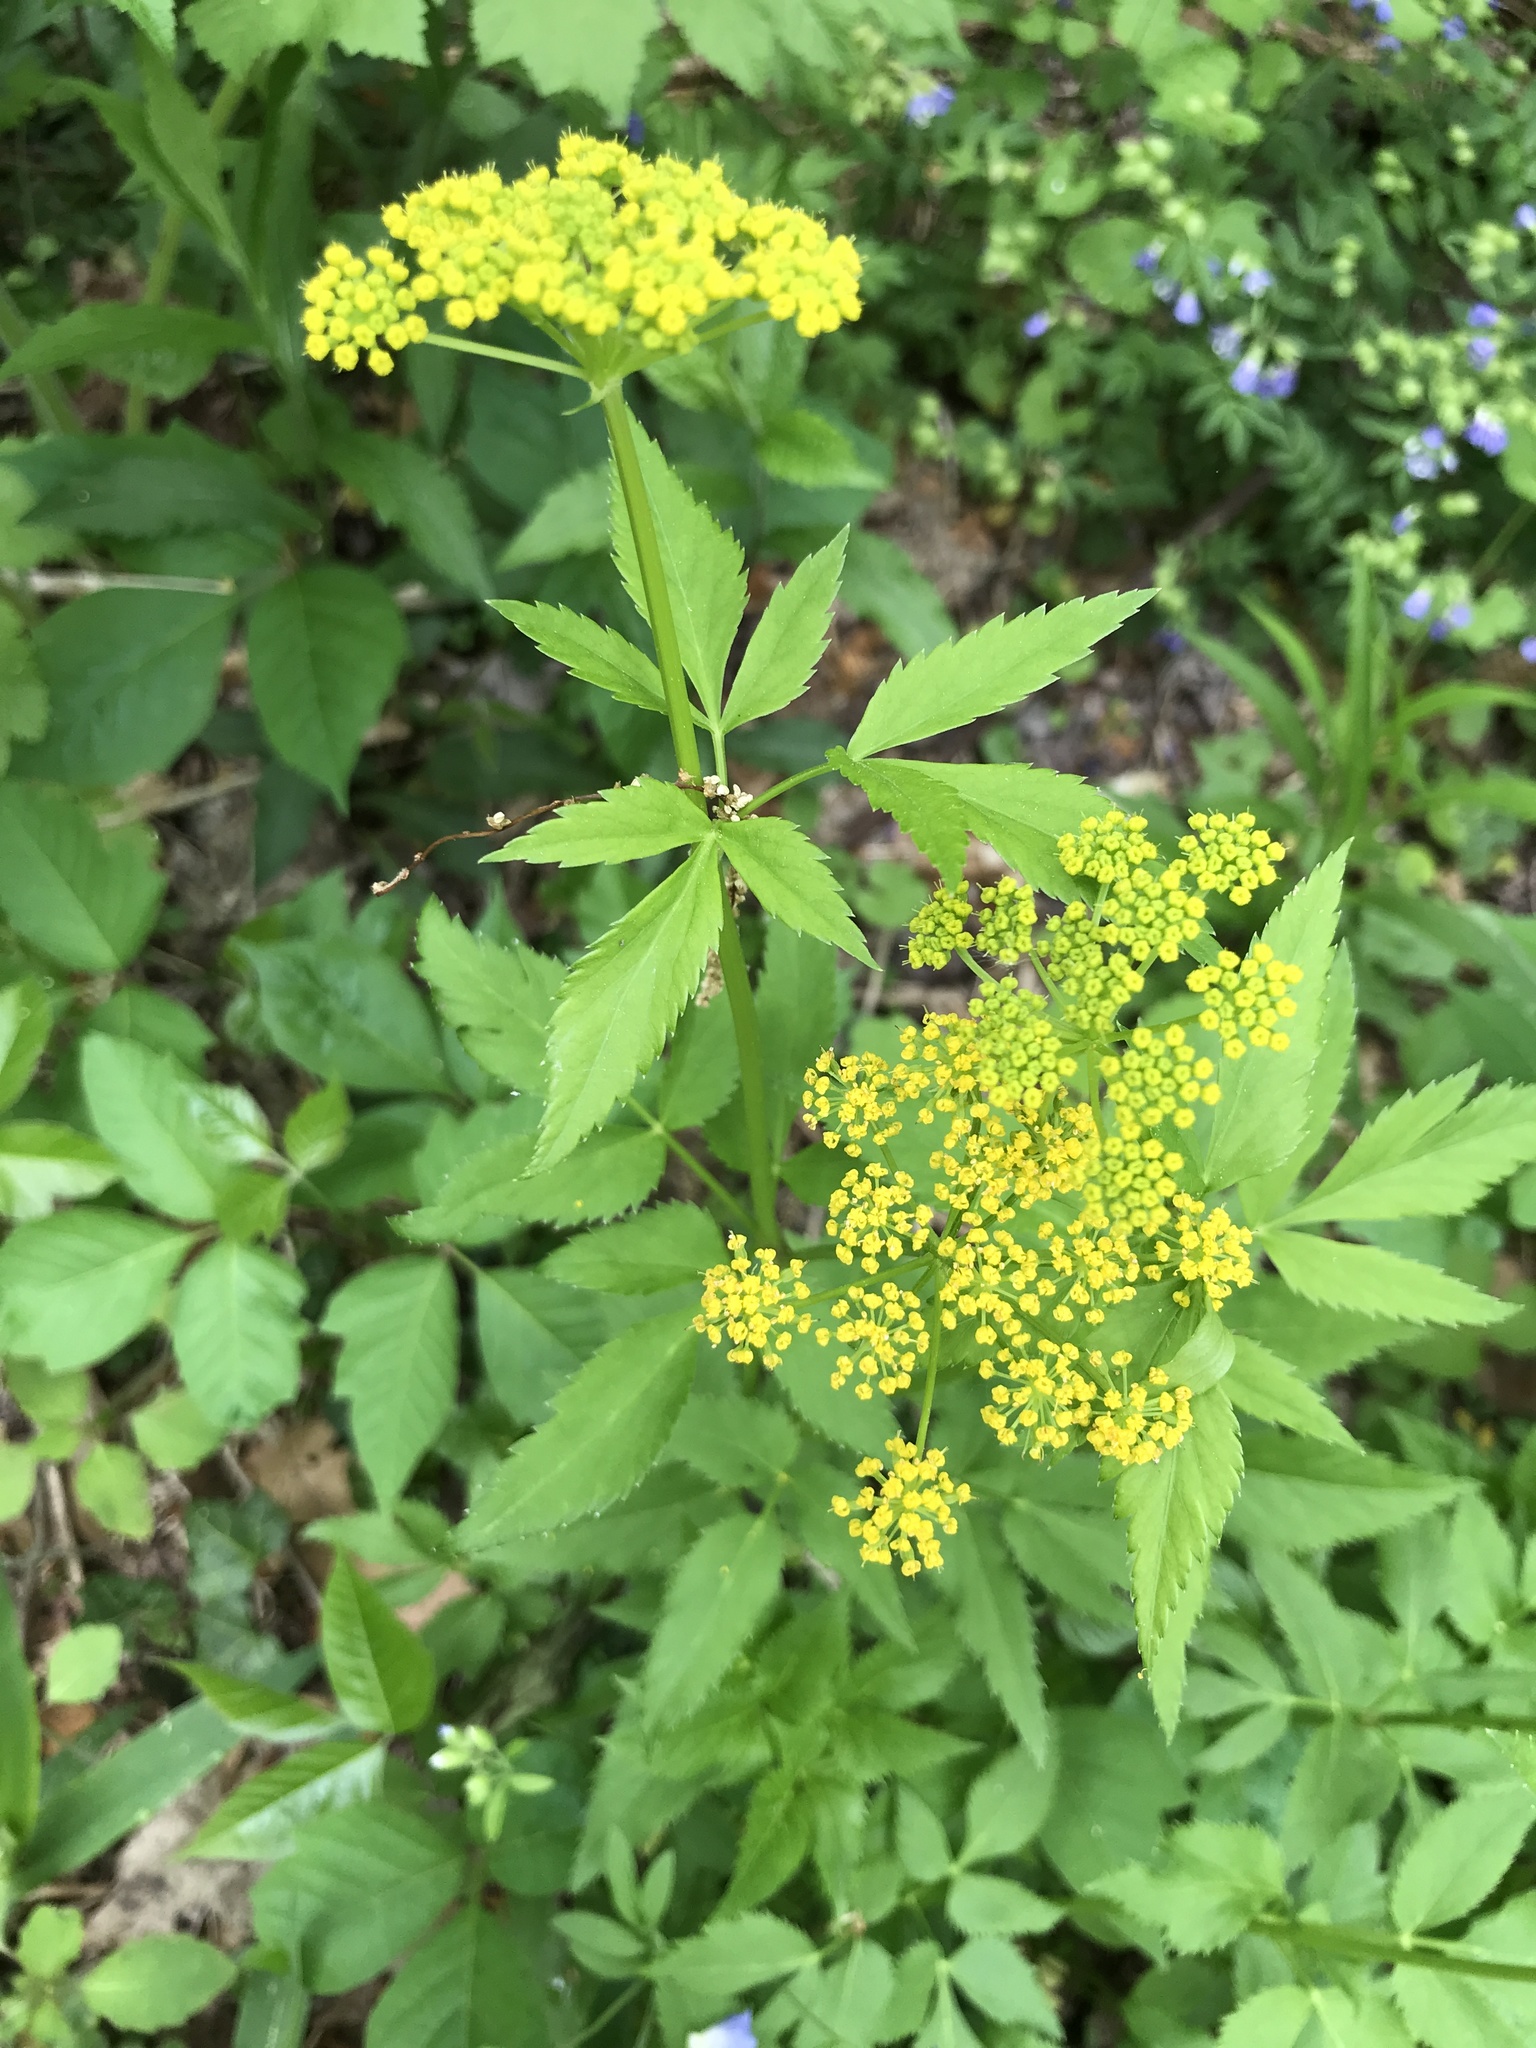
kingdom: Plantae
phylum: Tracheophyta
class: Magnoliopsida
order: Apiales
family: Apiaceae
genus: Zizia
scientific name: Zizia aurea
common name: Golden alexanders
